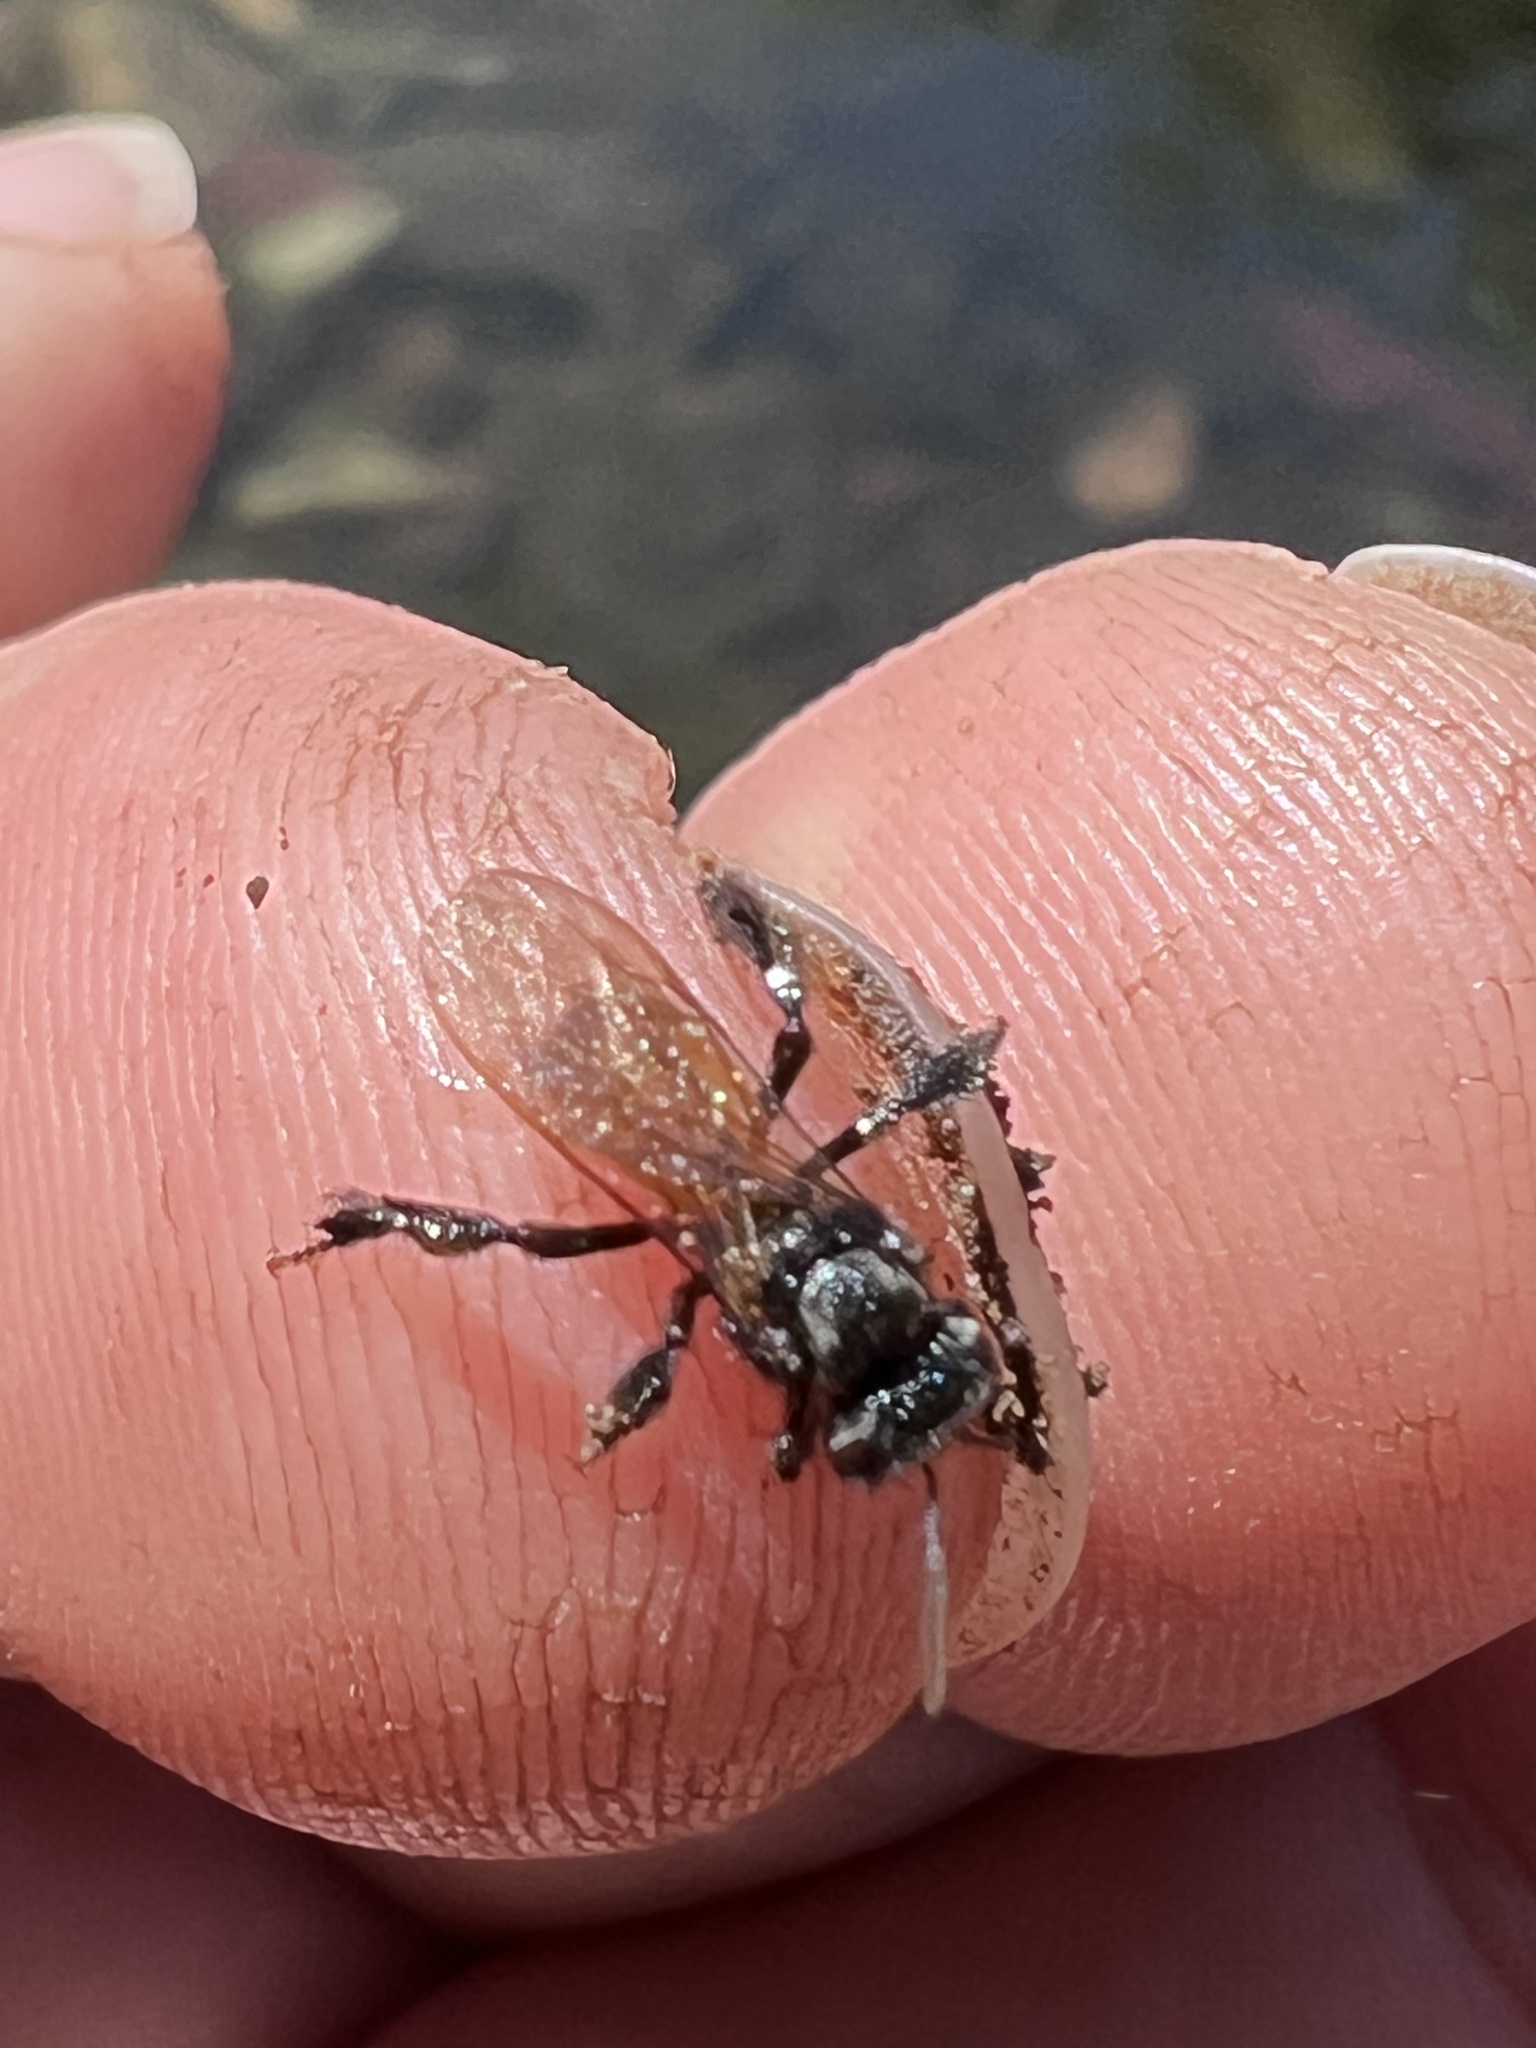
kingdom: Animalia
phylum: Arthropoda
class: Insecta
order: Hymenoptera
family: Apidae
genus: Trigona
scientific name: Trigona fulviventris
